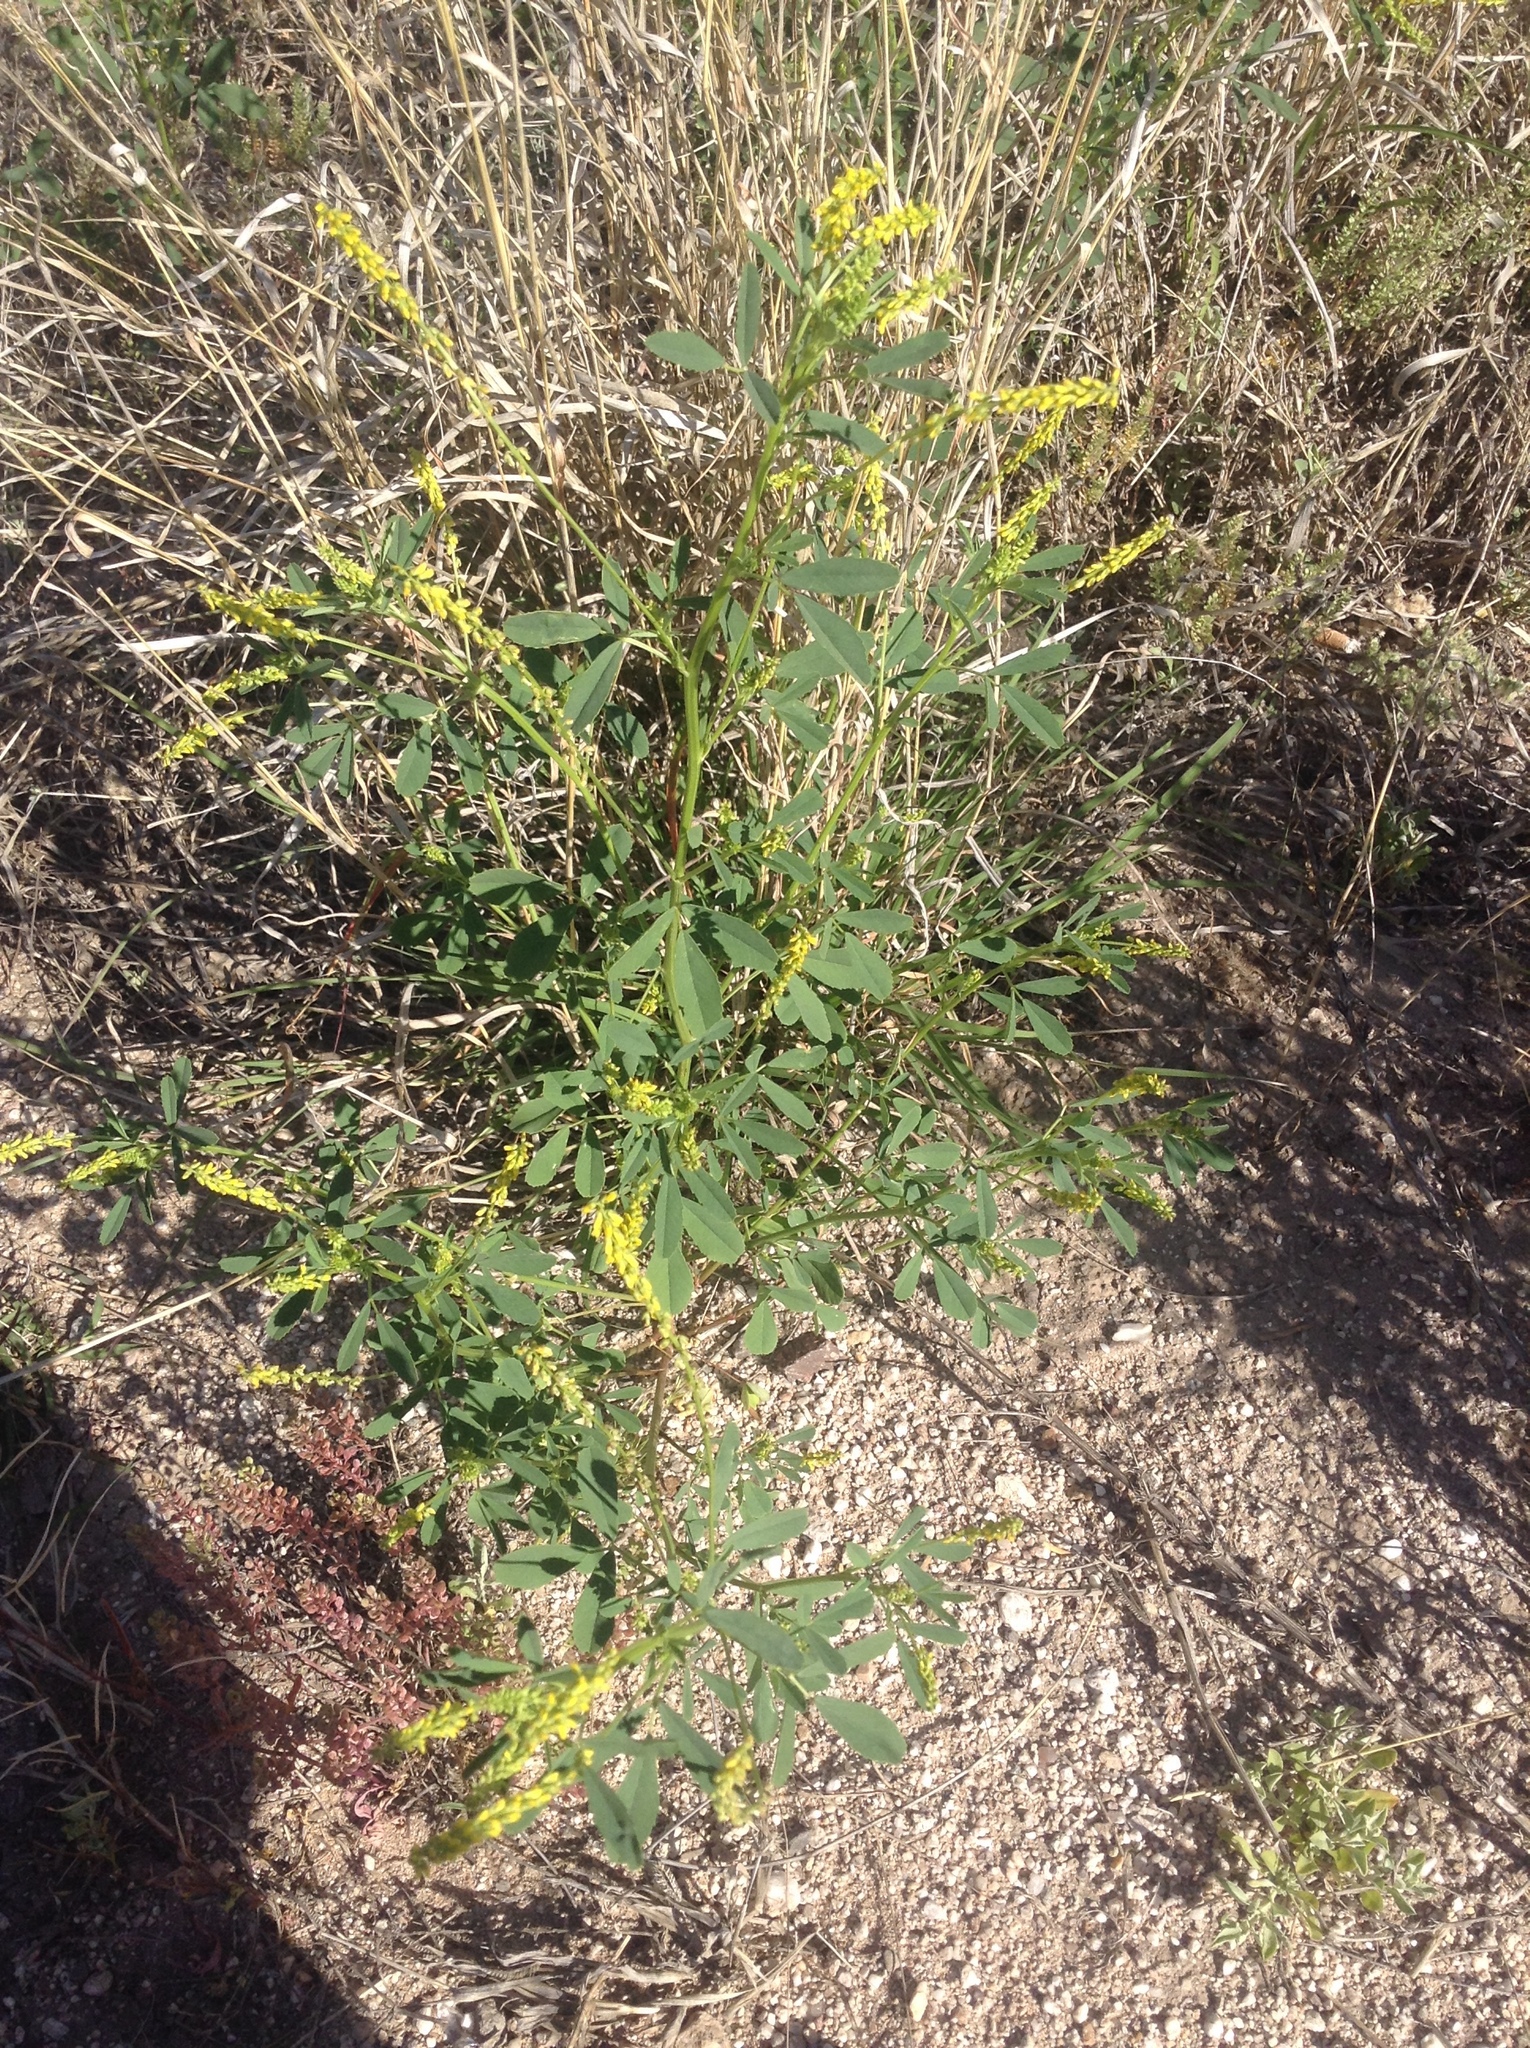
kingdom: Plantae
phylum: Tracheophyta
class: Magnoliopsida
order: Fabales
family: Fabaceae
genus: Melilotus
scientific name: Melilotus officinalis
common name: Sweetclover
